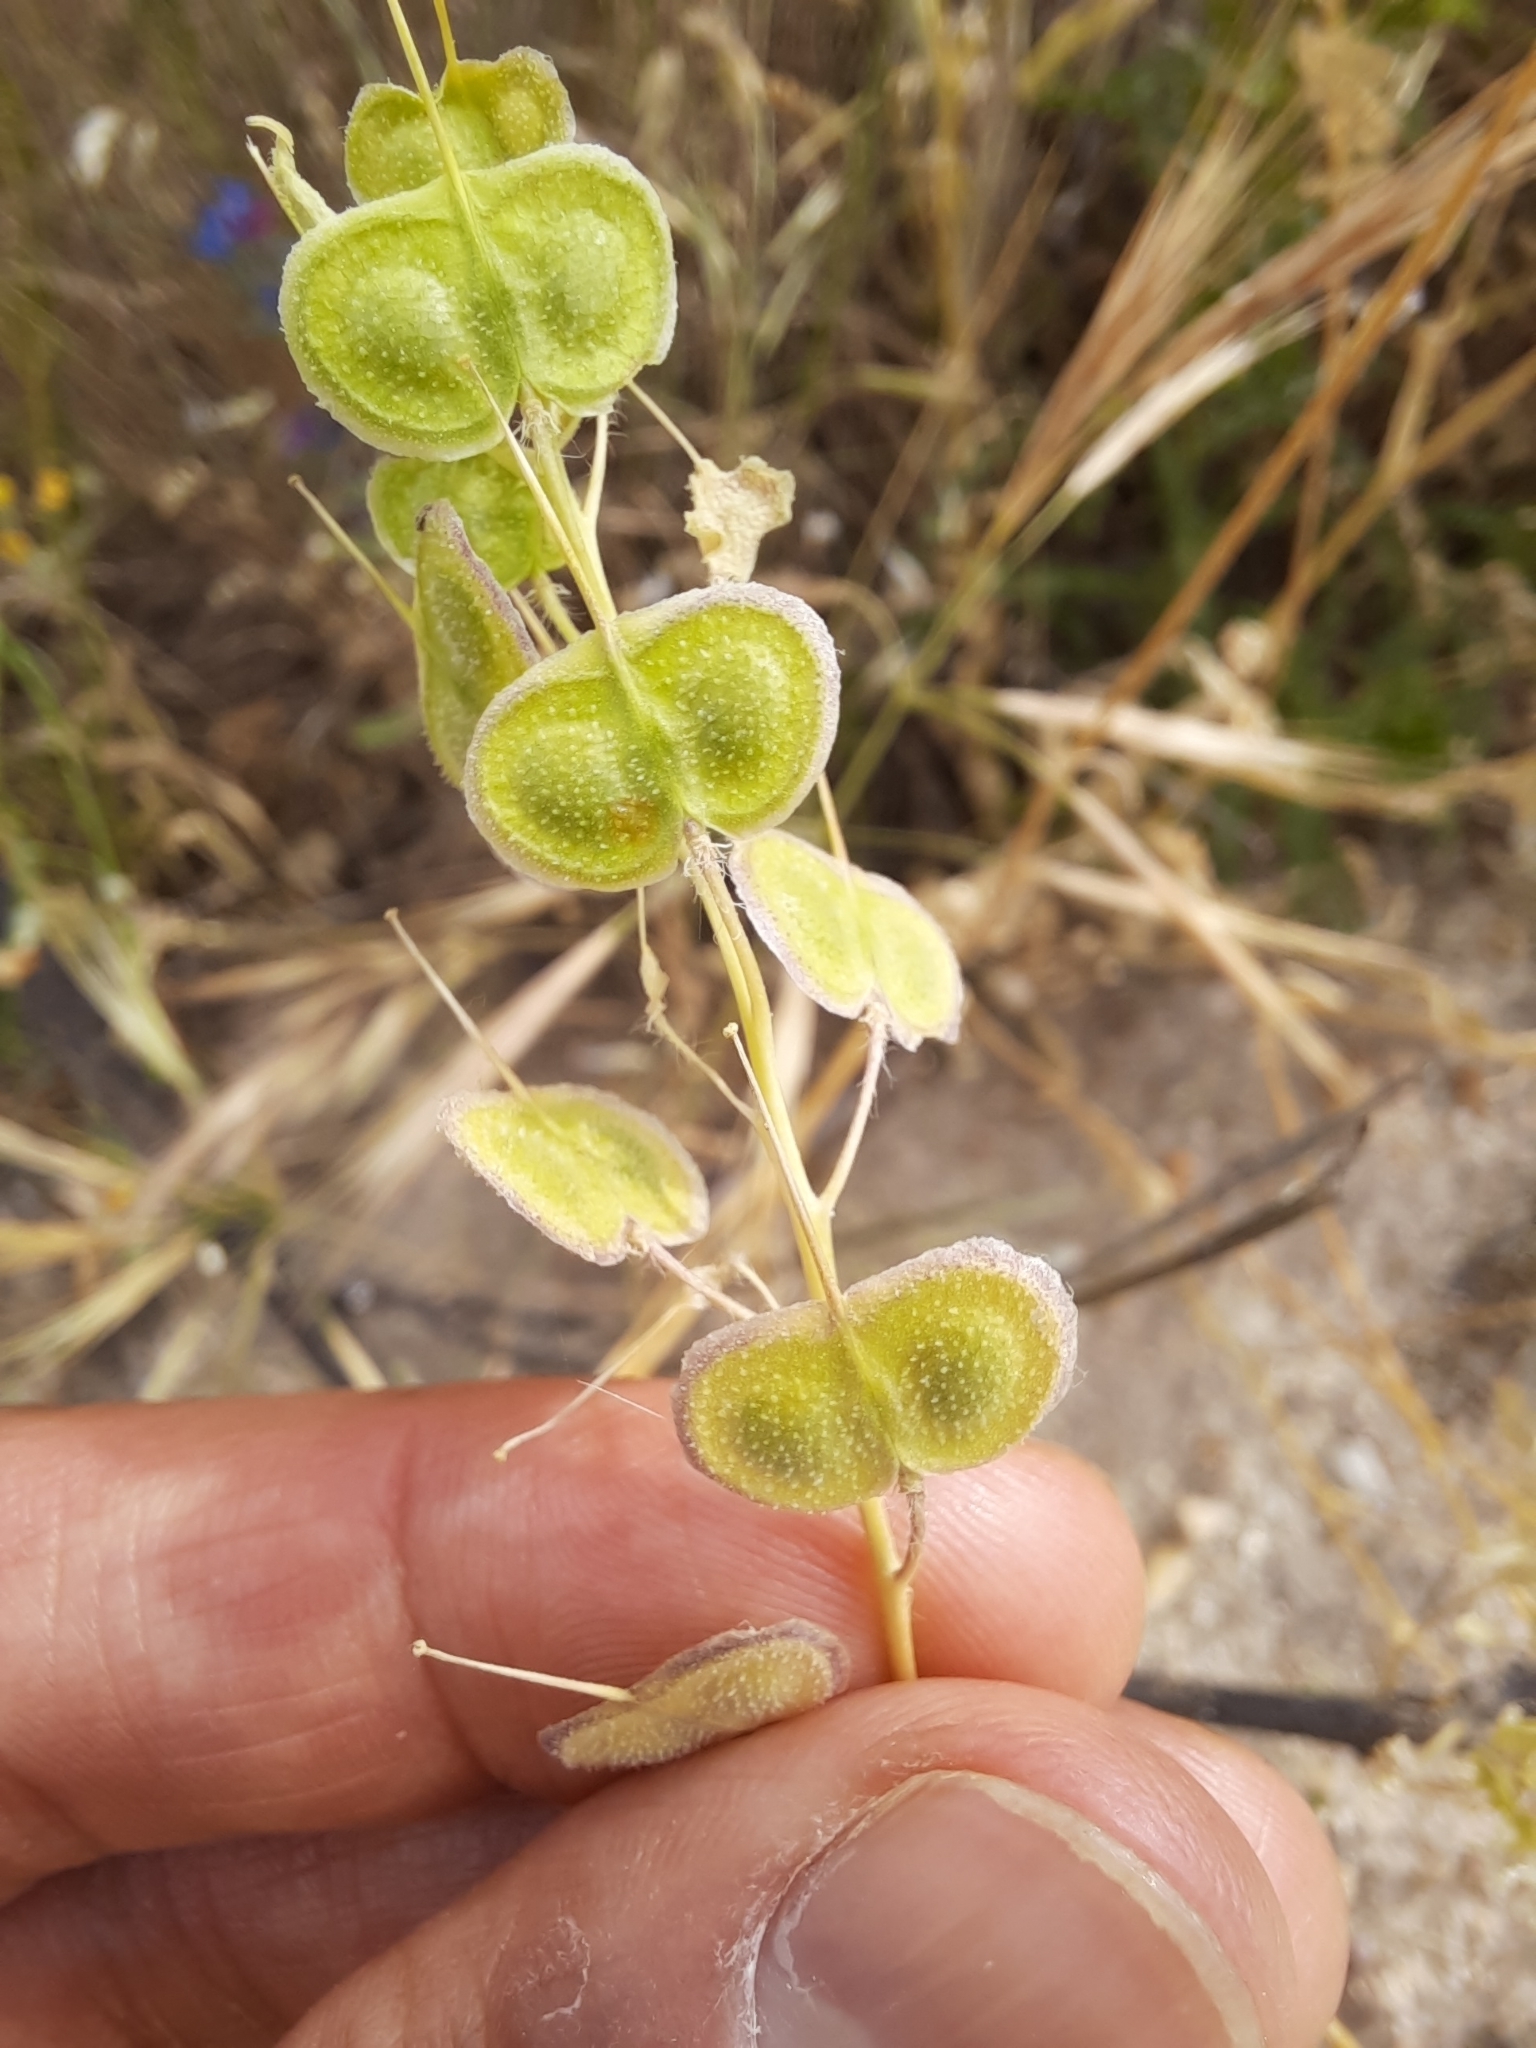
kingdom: Plantae
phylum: Tracheophyta
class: Magnoliopsida
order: Brassicales
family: Brassicaceae
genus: Biscutella
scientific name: Biscutella laevigata
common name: Buckler mustard
